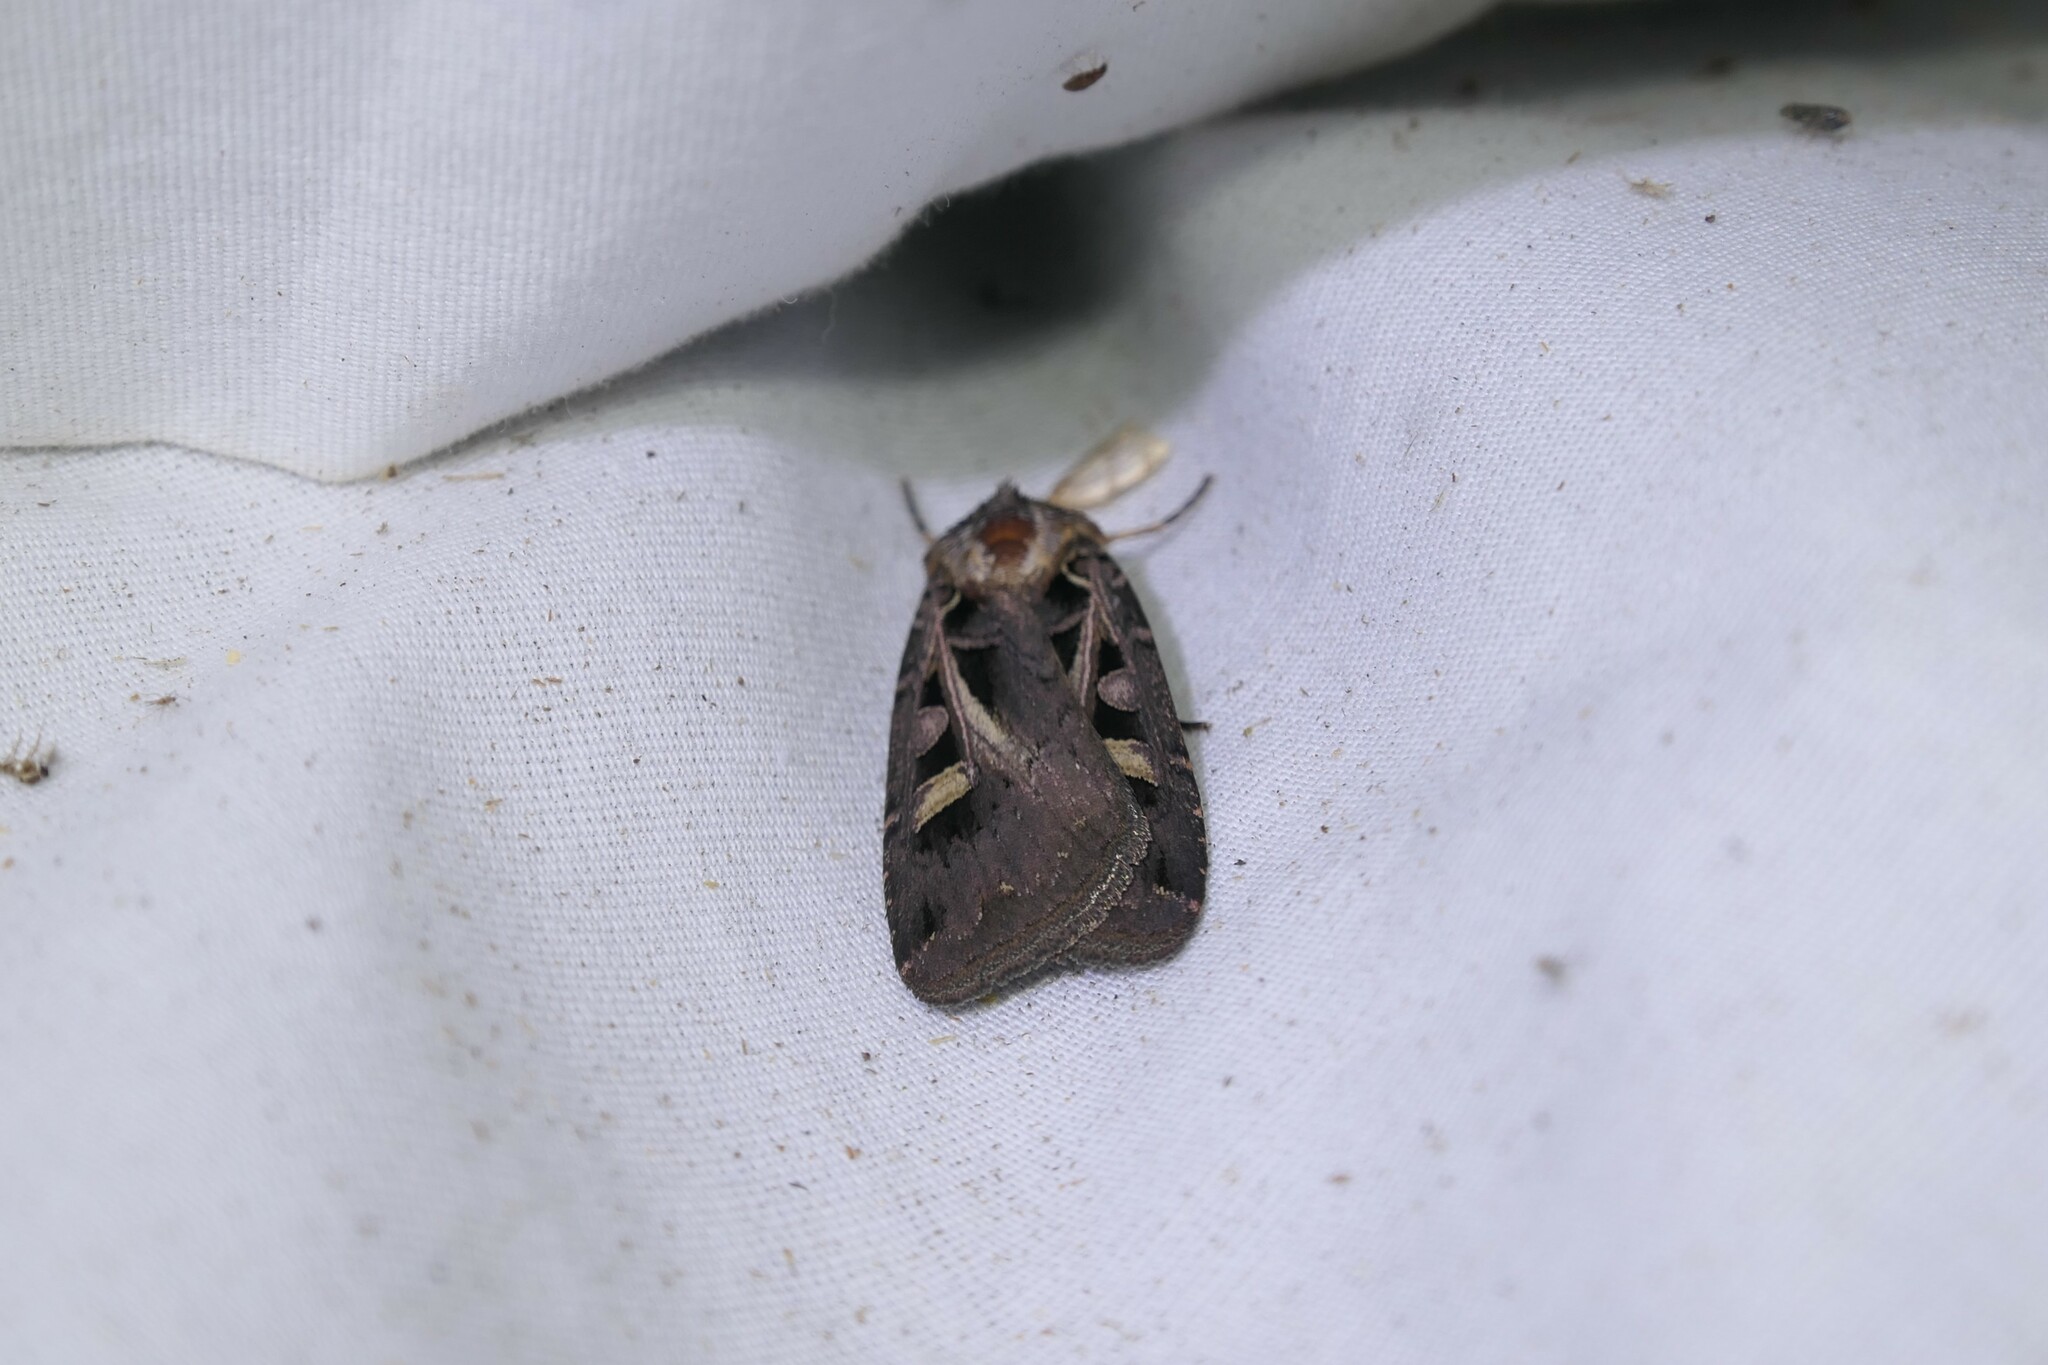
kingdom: Animalia
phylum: Arthropoda
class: Insecta
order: Lepidoptera
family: Noctuidae
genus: Feltia
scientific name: Feltia herilis
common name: Master's dart
